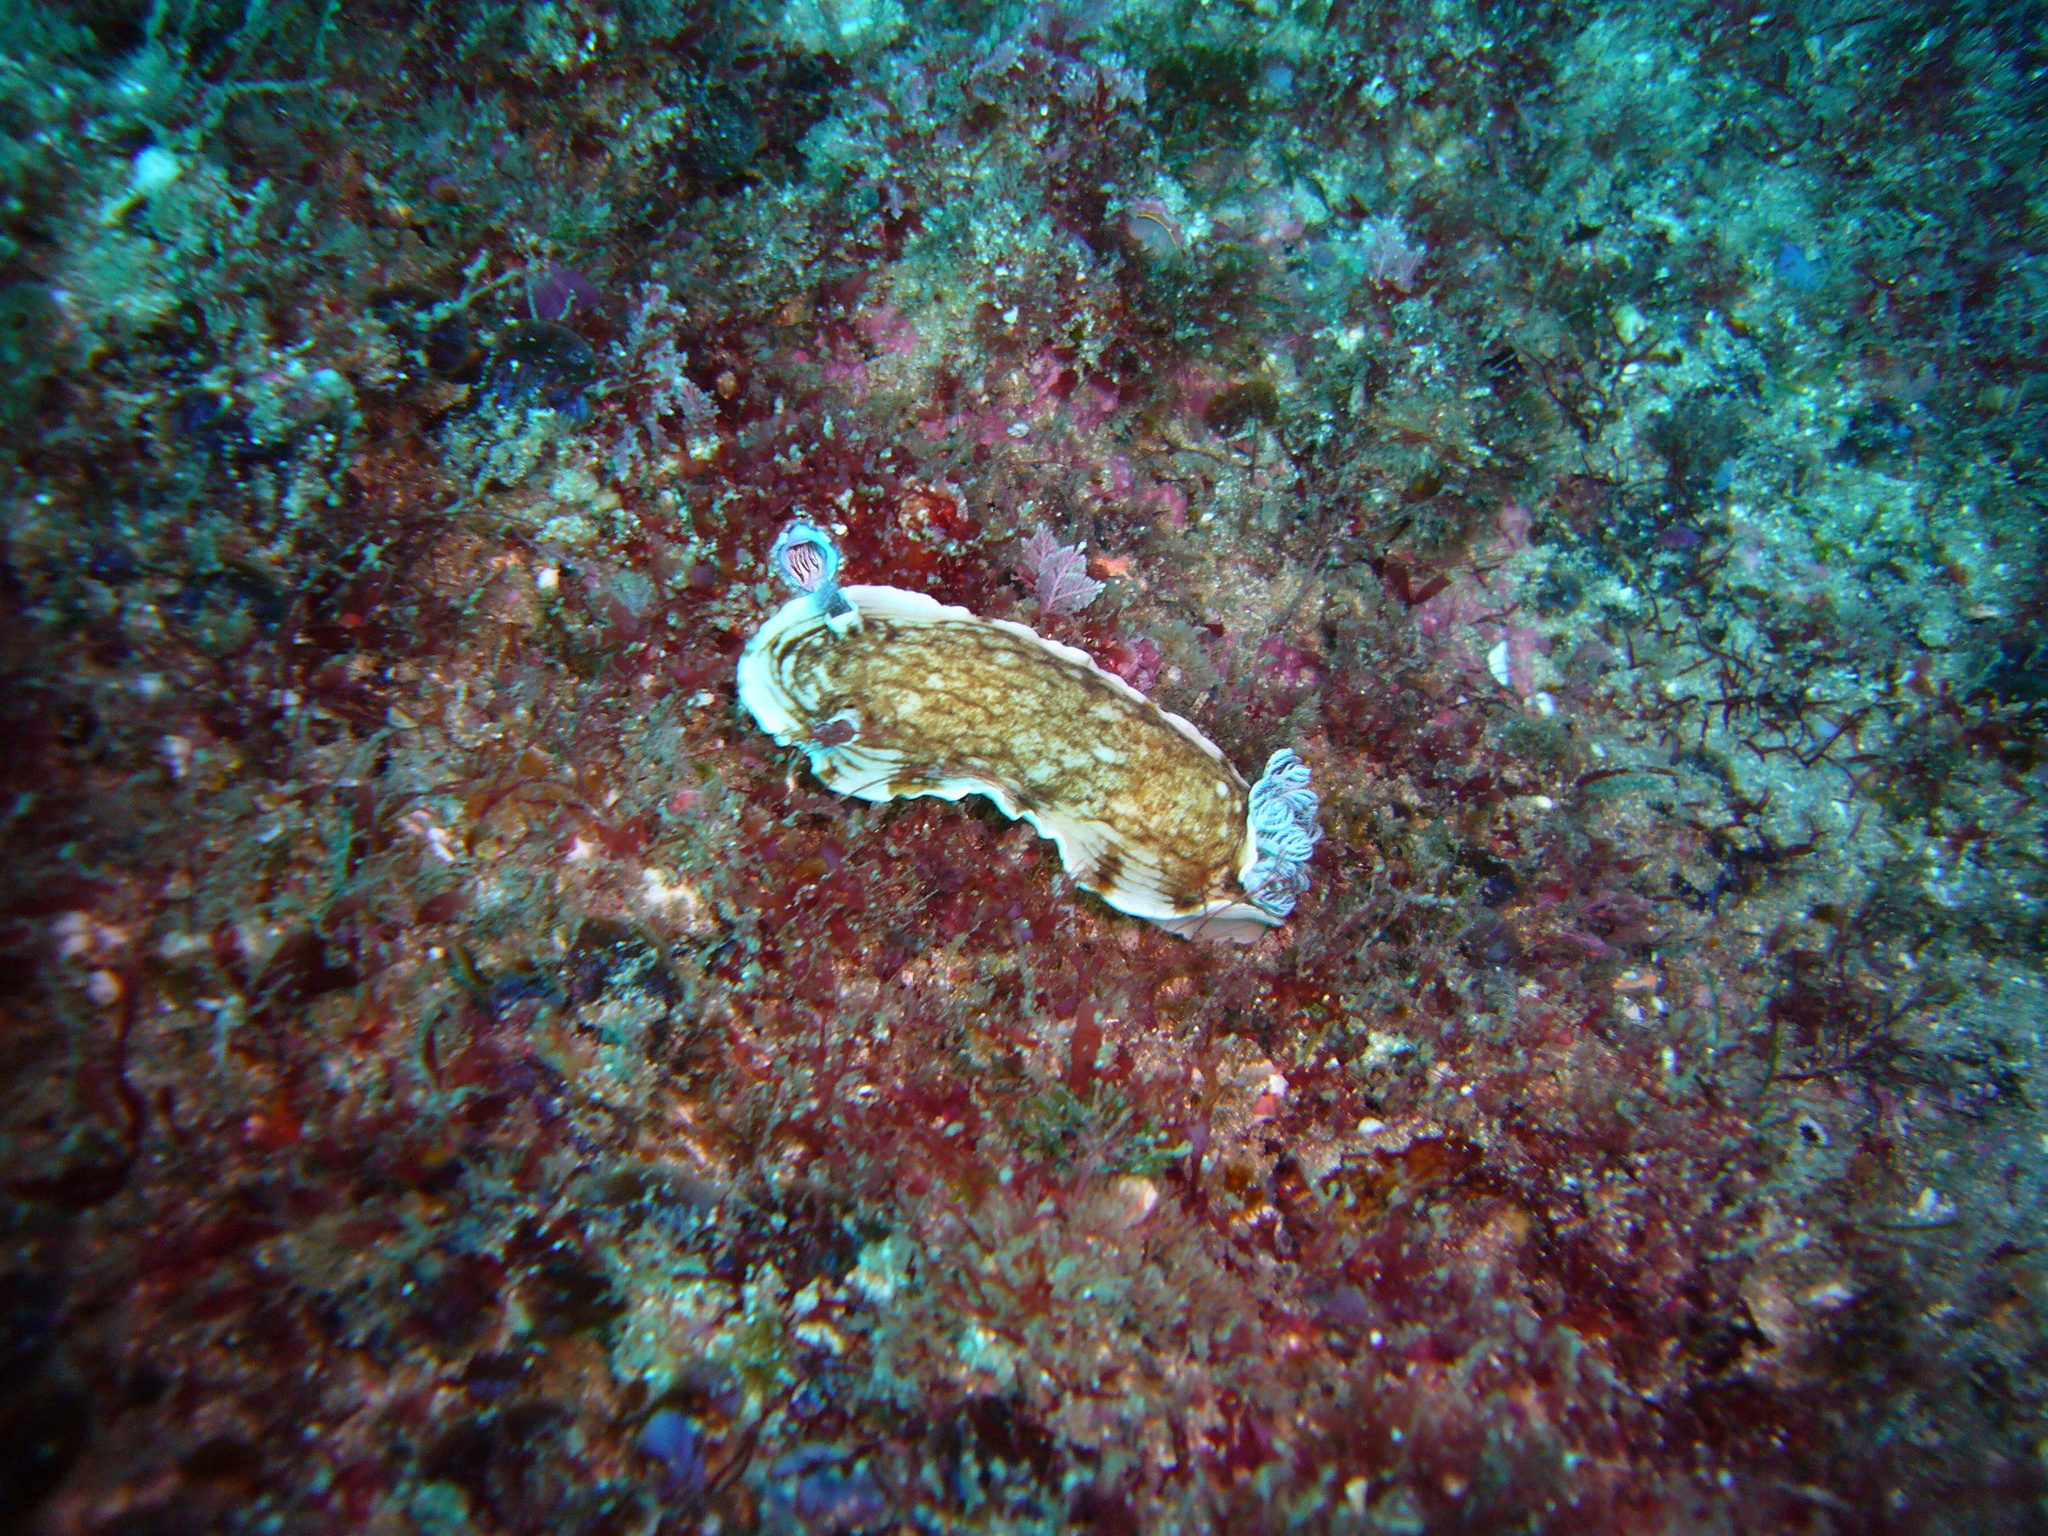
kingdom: Animalia
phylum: Mollusca
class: Gastropoda
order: Nudibranchia
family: Dorididae
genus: Aphelodoris
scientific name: Aphelodoris varia
